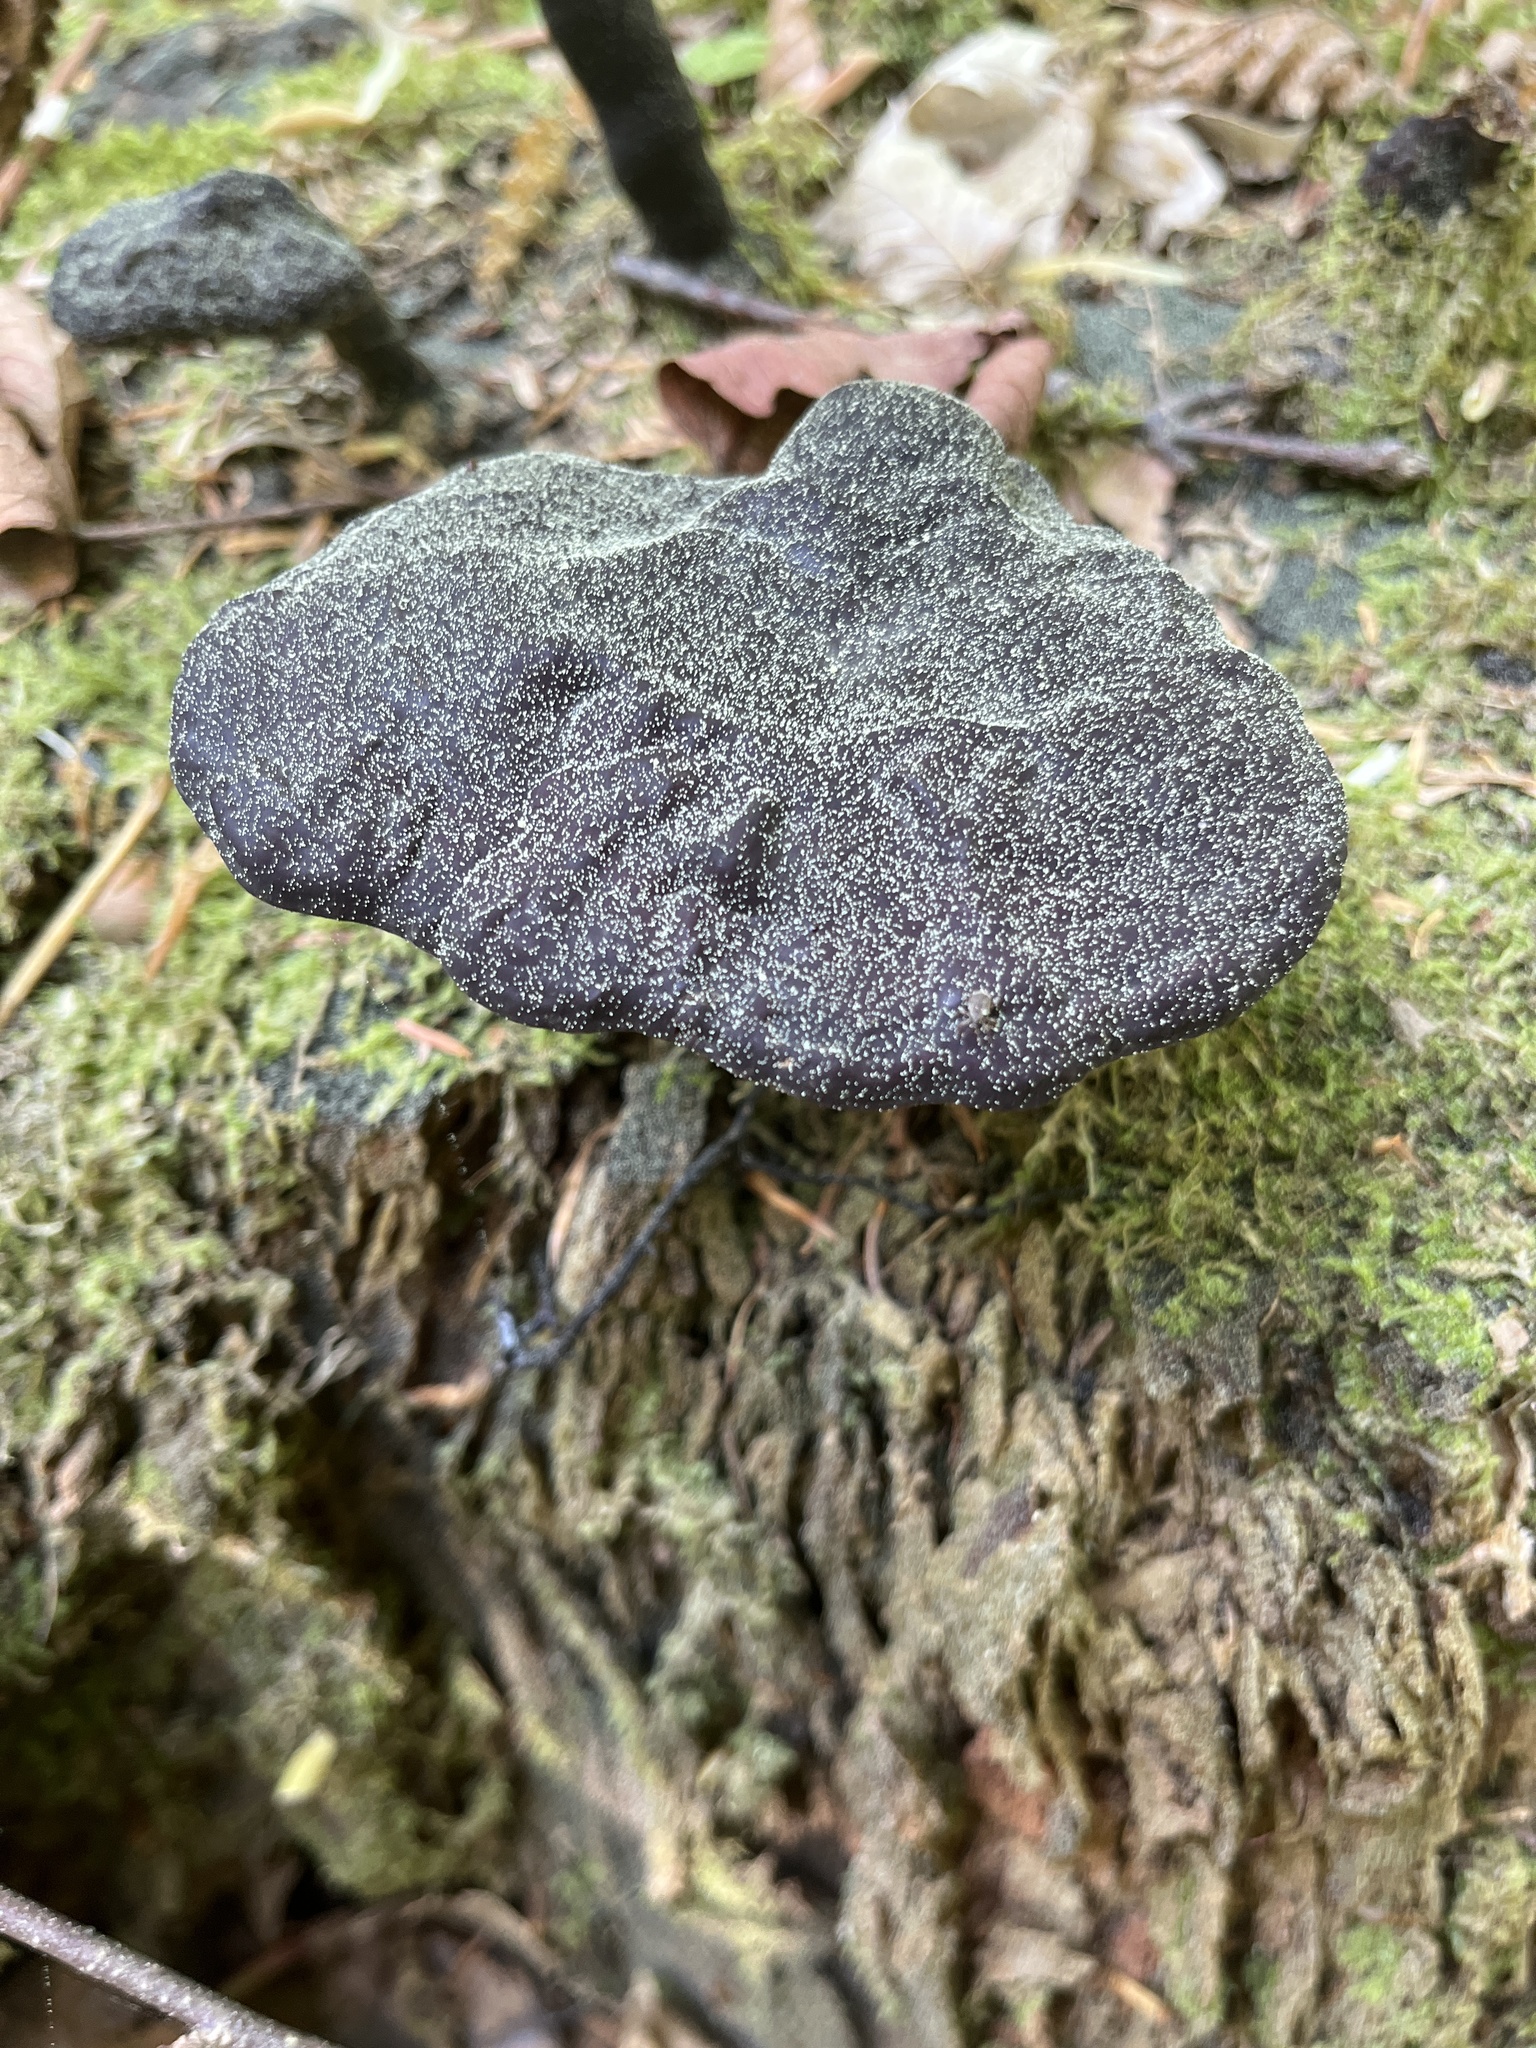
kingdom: Fungi
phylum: Basidiomycota
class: Agaricomycetes
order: Polyporales
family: Polyporaceae
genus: Ganoderma
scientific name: Ganoderma carnosum
